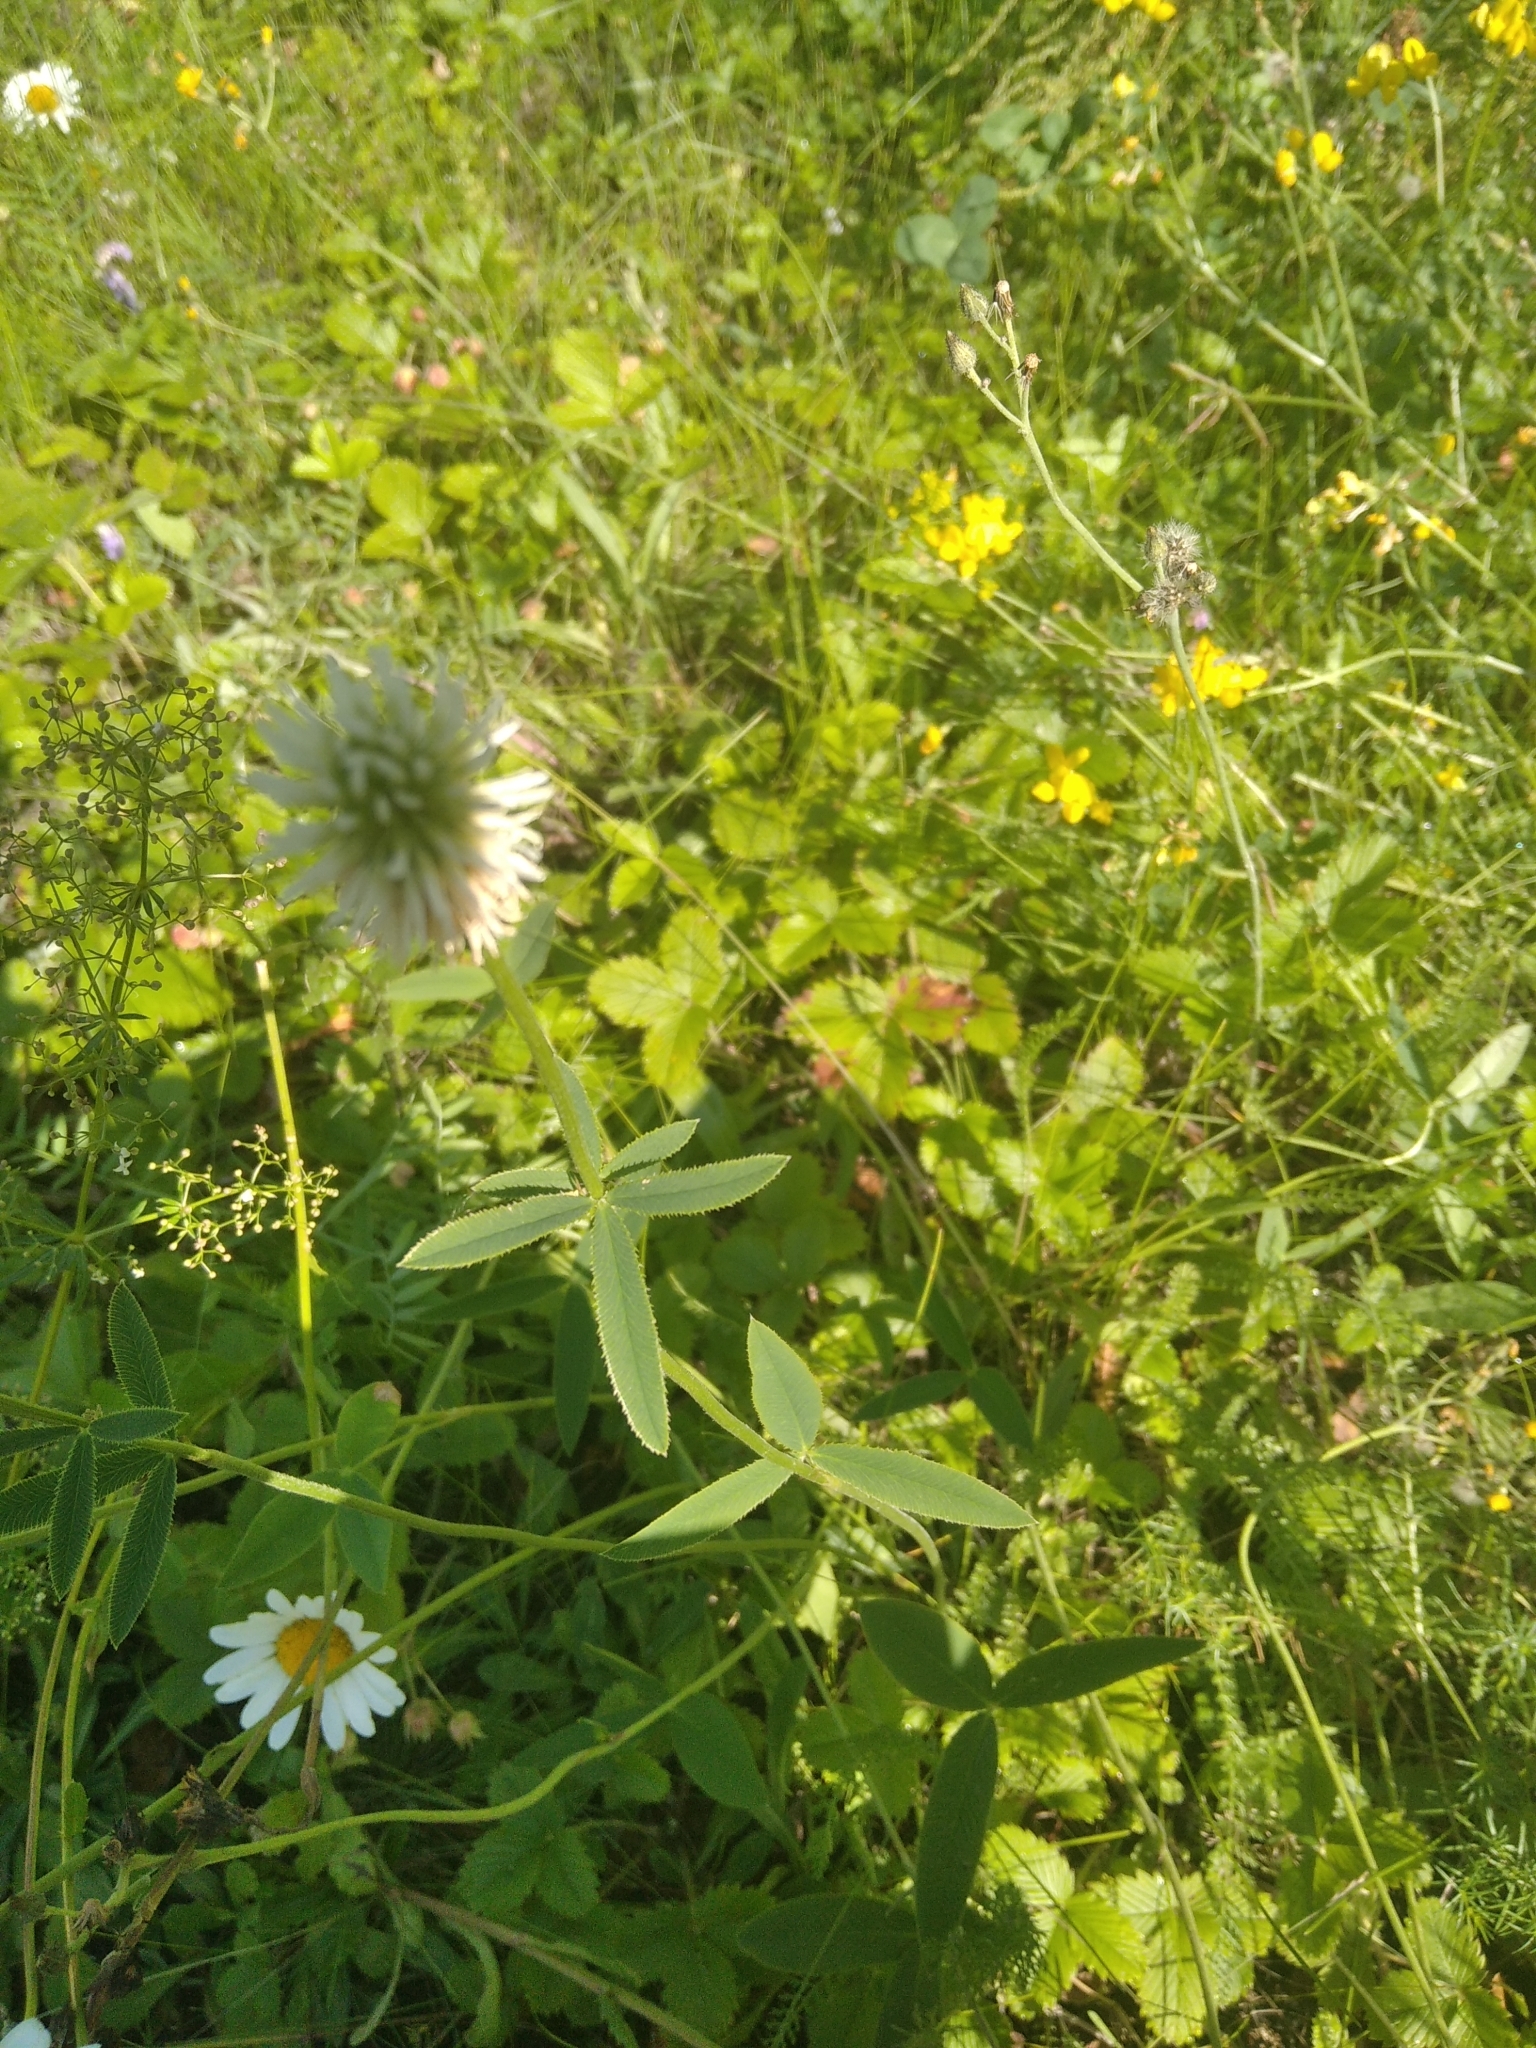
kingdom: Plantae
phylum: Tracheophyta
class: Magnoliopsida
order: Fabales
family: Fabaceae
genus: Trifolium
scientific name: Trifolium montanum
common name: Mountain clover
